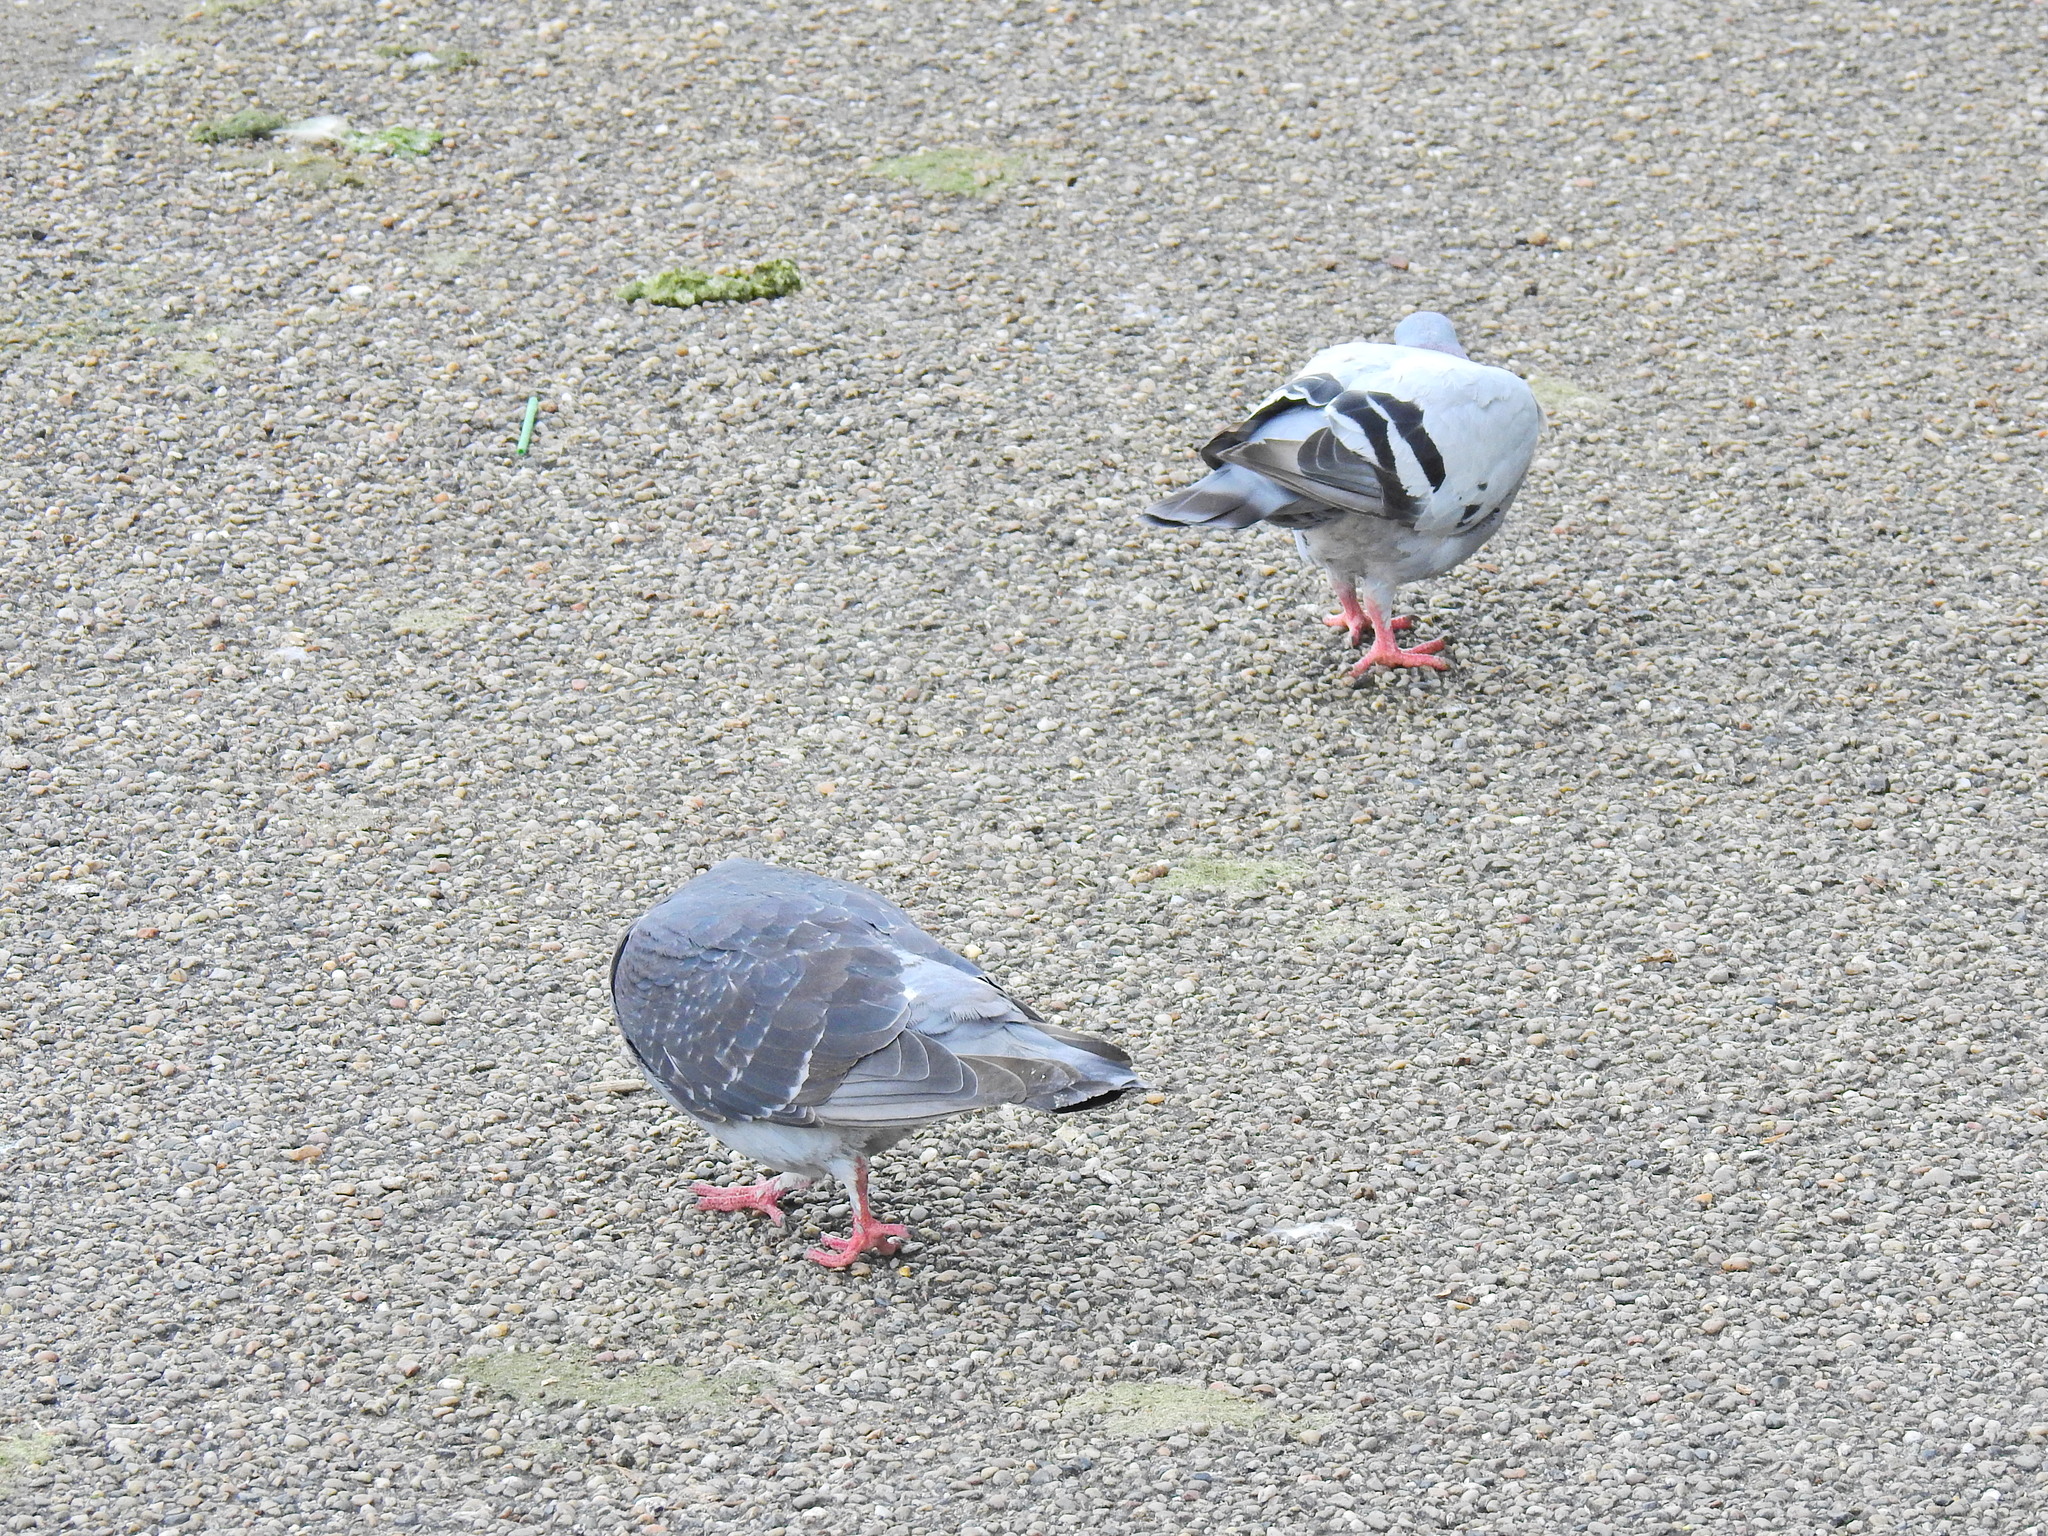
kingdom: Animalia
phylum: Chordata
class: Aves
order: Columbiformes
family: Columbidae
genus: Columba
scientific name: Columba livia
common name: Rock pigeon
